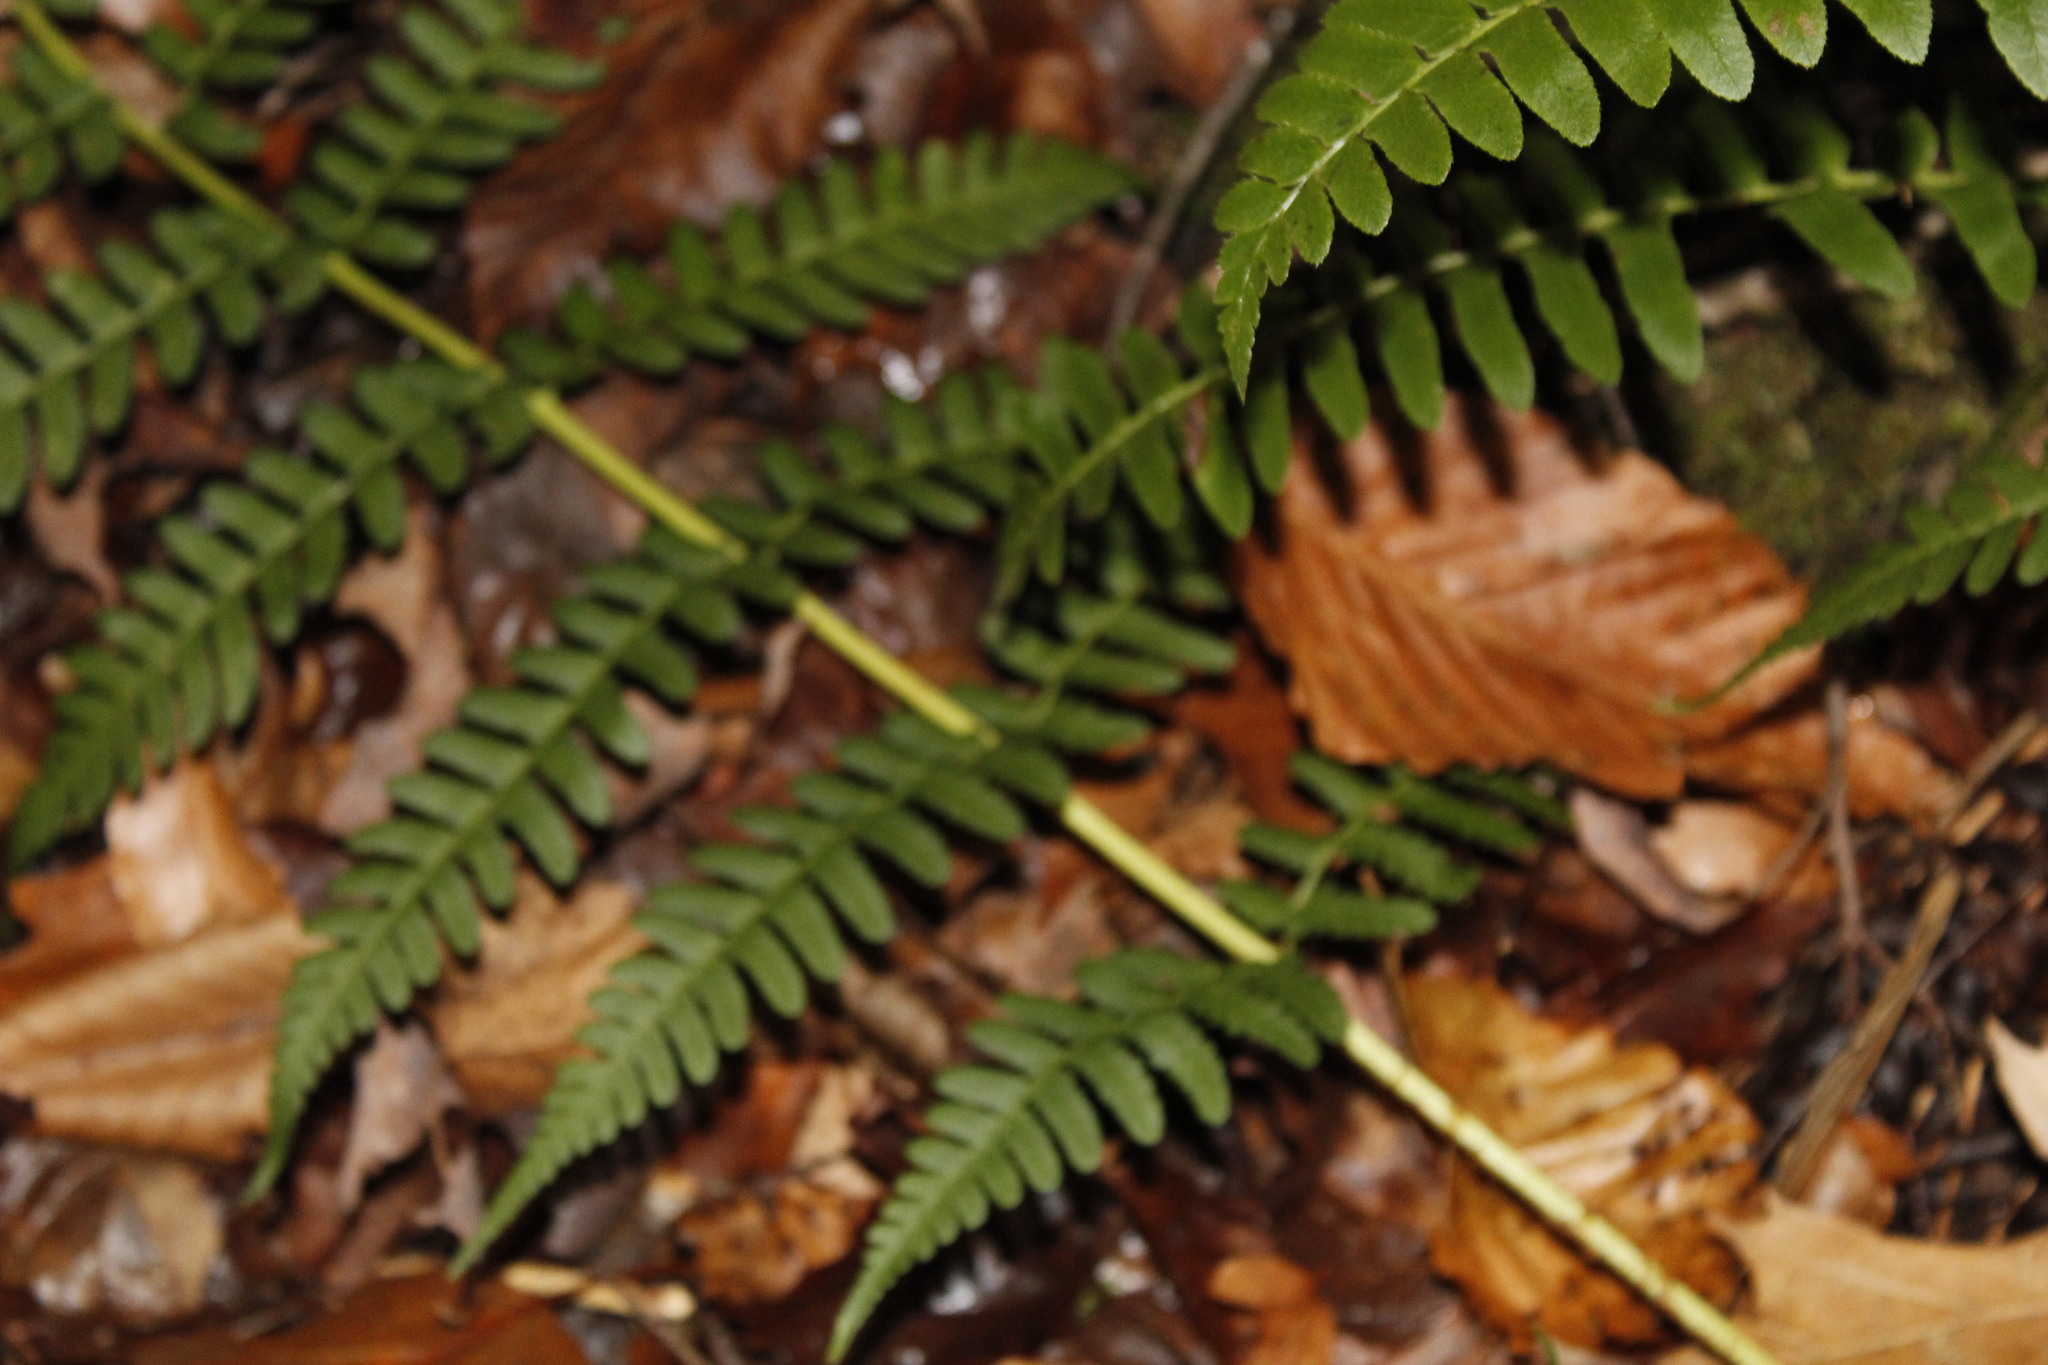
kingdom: Plantae
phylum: Tracheophyta
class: Polypodiopsida
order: Polypodiales
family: Dryopteridaceae
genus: Dryopteris
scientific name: Dryopteris marginalis
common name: Marginal wood fern
